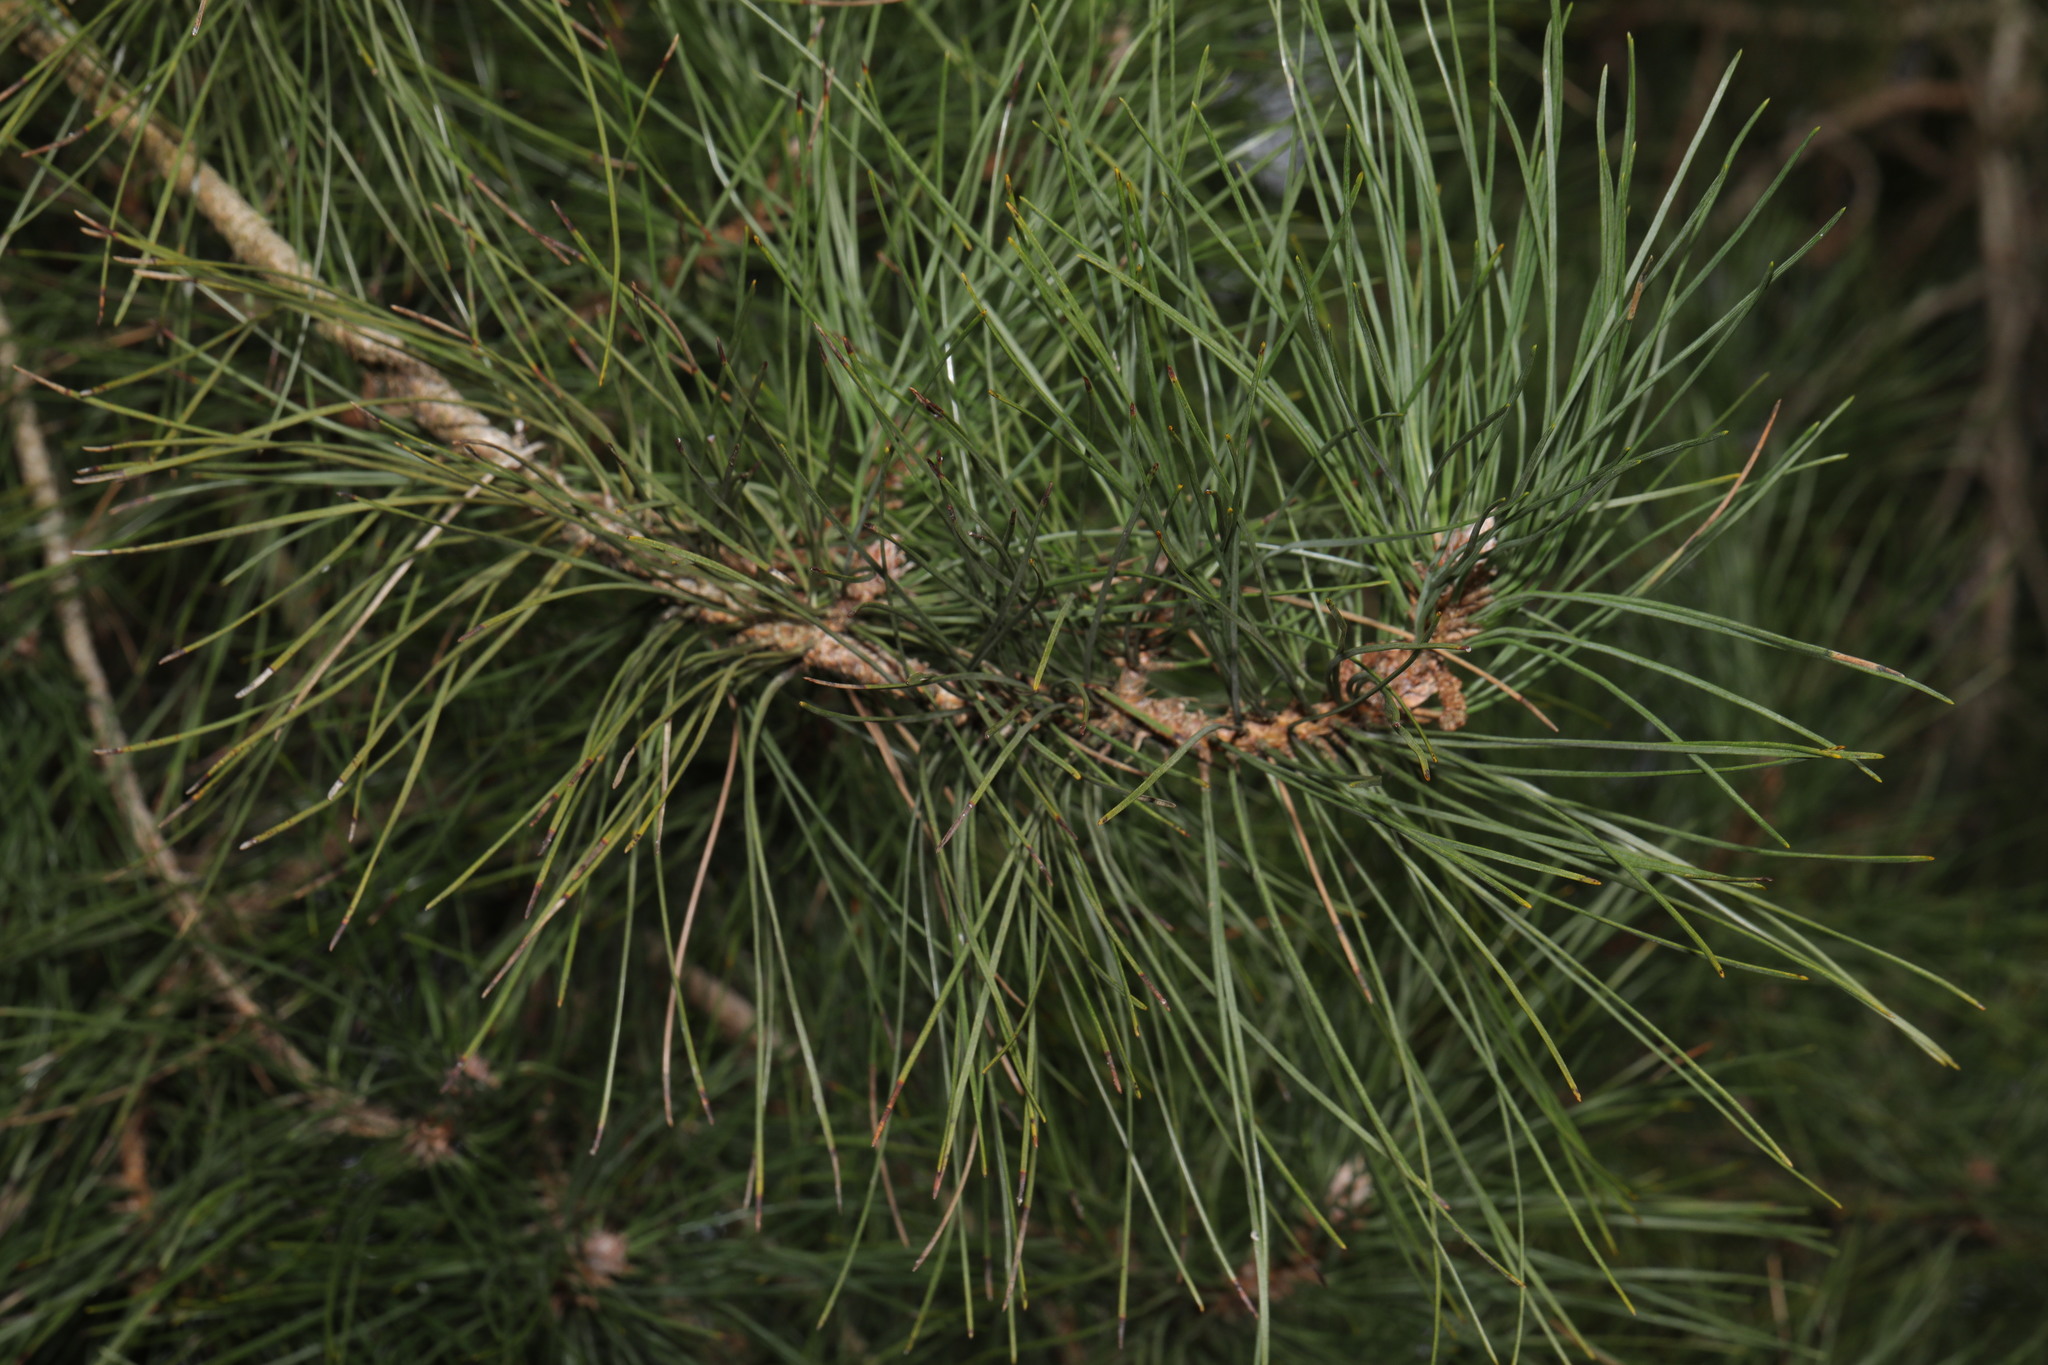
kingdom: Plantae
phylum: Tracheophyta
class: Pinopsida
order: Pinales
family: Pinaceae
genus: Pinus
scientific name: Pinus sylvestris
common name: Scots pine
